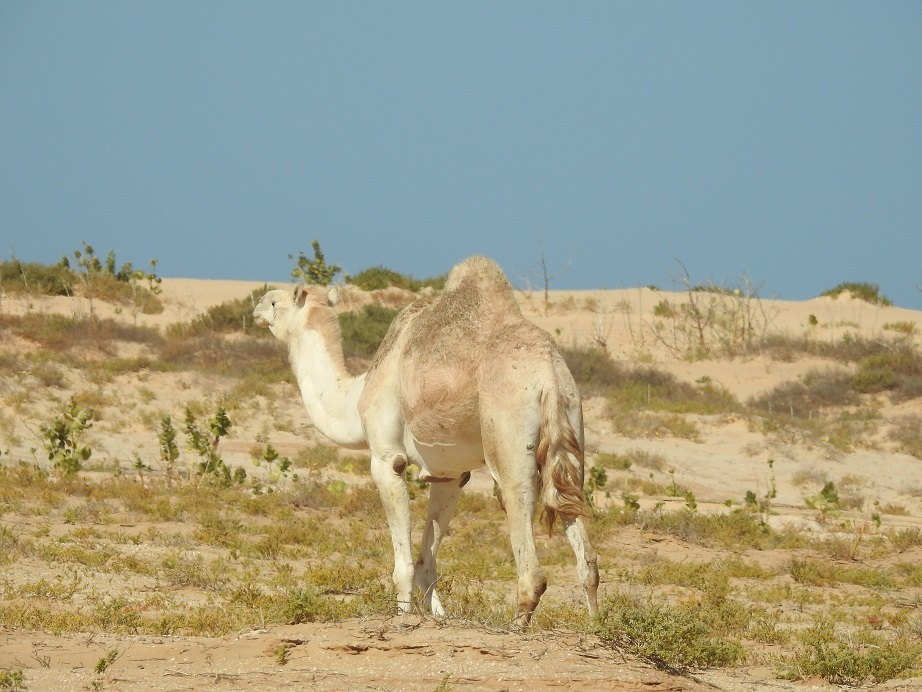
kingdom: Animalia
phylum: Chordata
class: Mammalia
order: Artiodactyla
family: Camelidae
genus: Camelus
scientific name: Camelus dromedarius
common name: One-humped camel
